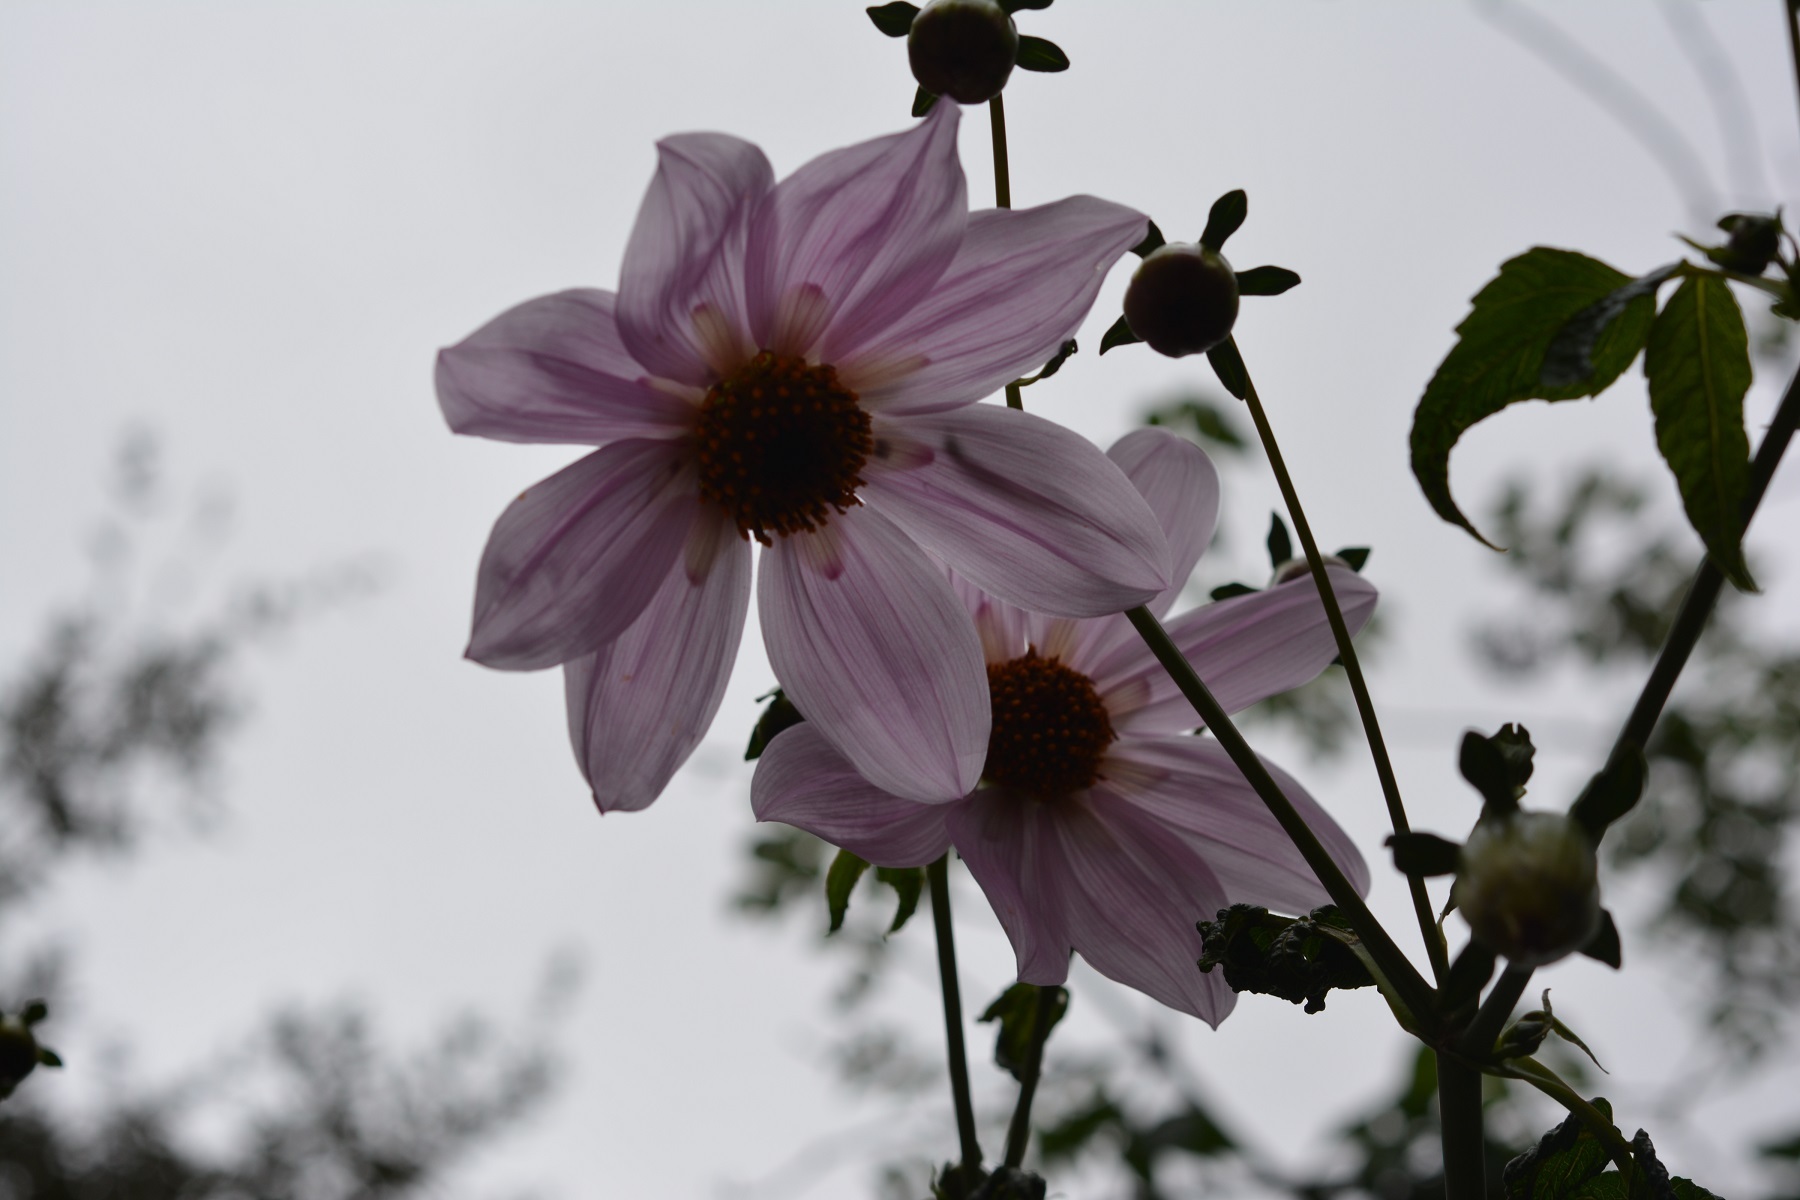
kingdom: Plantae
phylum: Tracheophyta
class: Magnoliopsida
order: Asterales
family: Asteraceae
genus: Dahlia
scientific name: Dahlia imperialis
